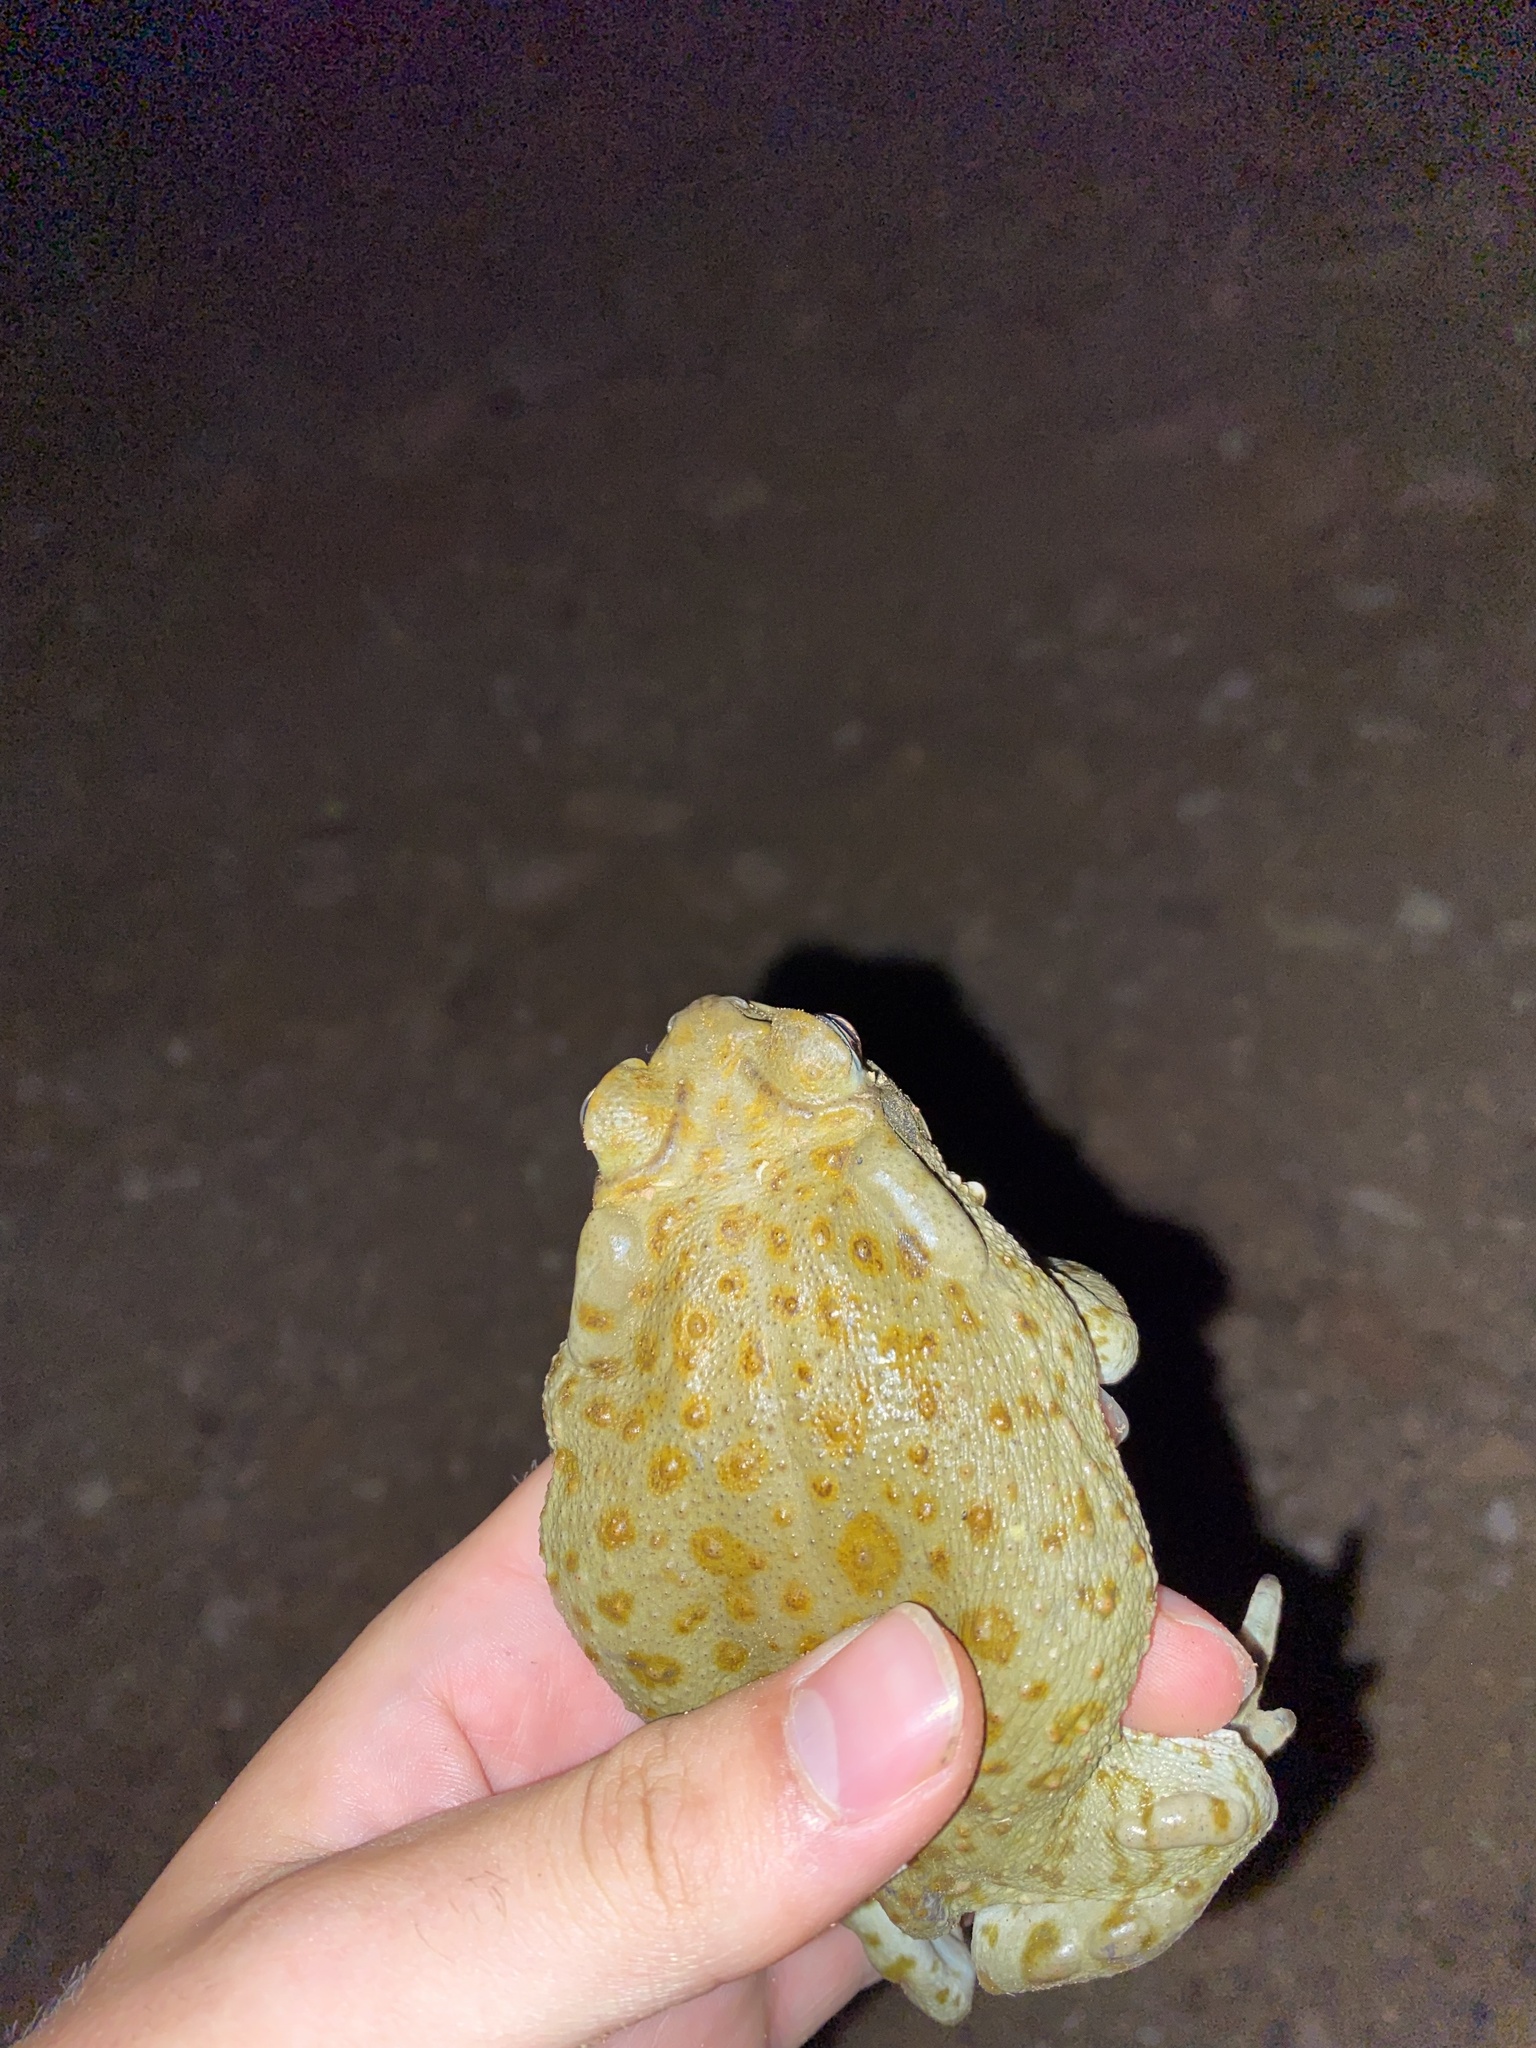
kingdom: Animalia
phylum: Chordata
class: Amphibia
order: Anura
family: Bufonidae
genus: Incilius
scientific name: Incilius alvarius
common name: Sonoran desert toad
